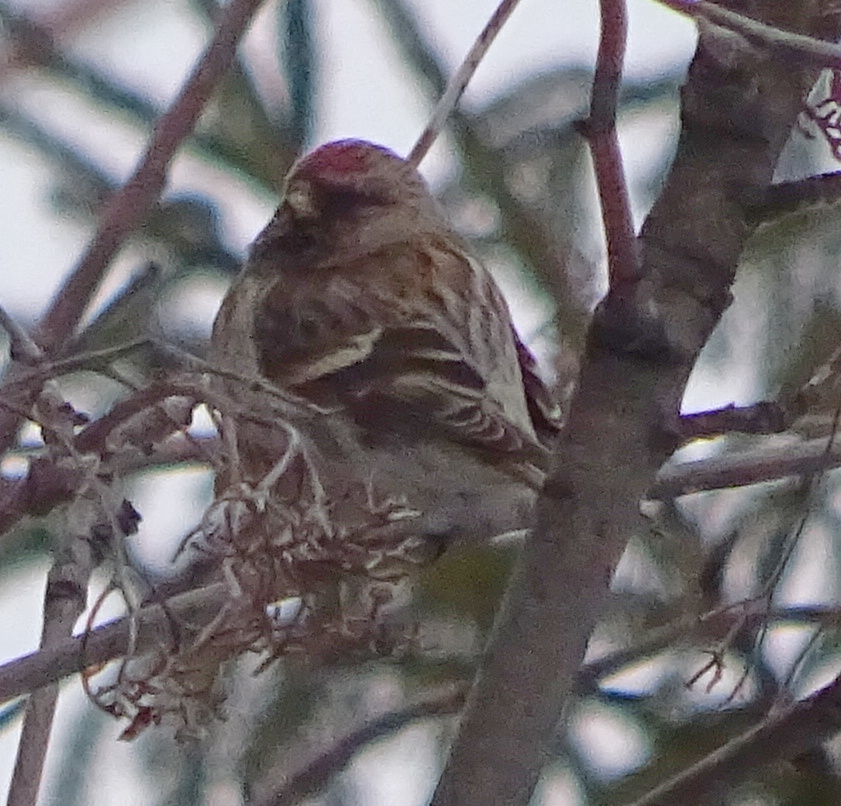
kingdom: Animalia
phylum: Chordata
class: Aves
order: Passeriformes
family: Fringillidae
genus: Acanthis
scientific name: Acanthis flammea
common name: Common redpoll
